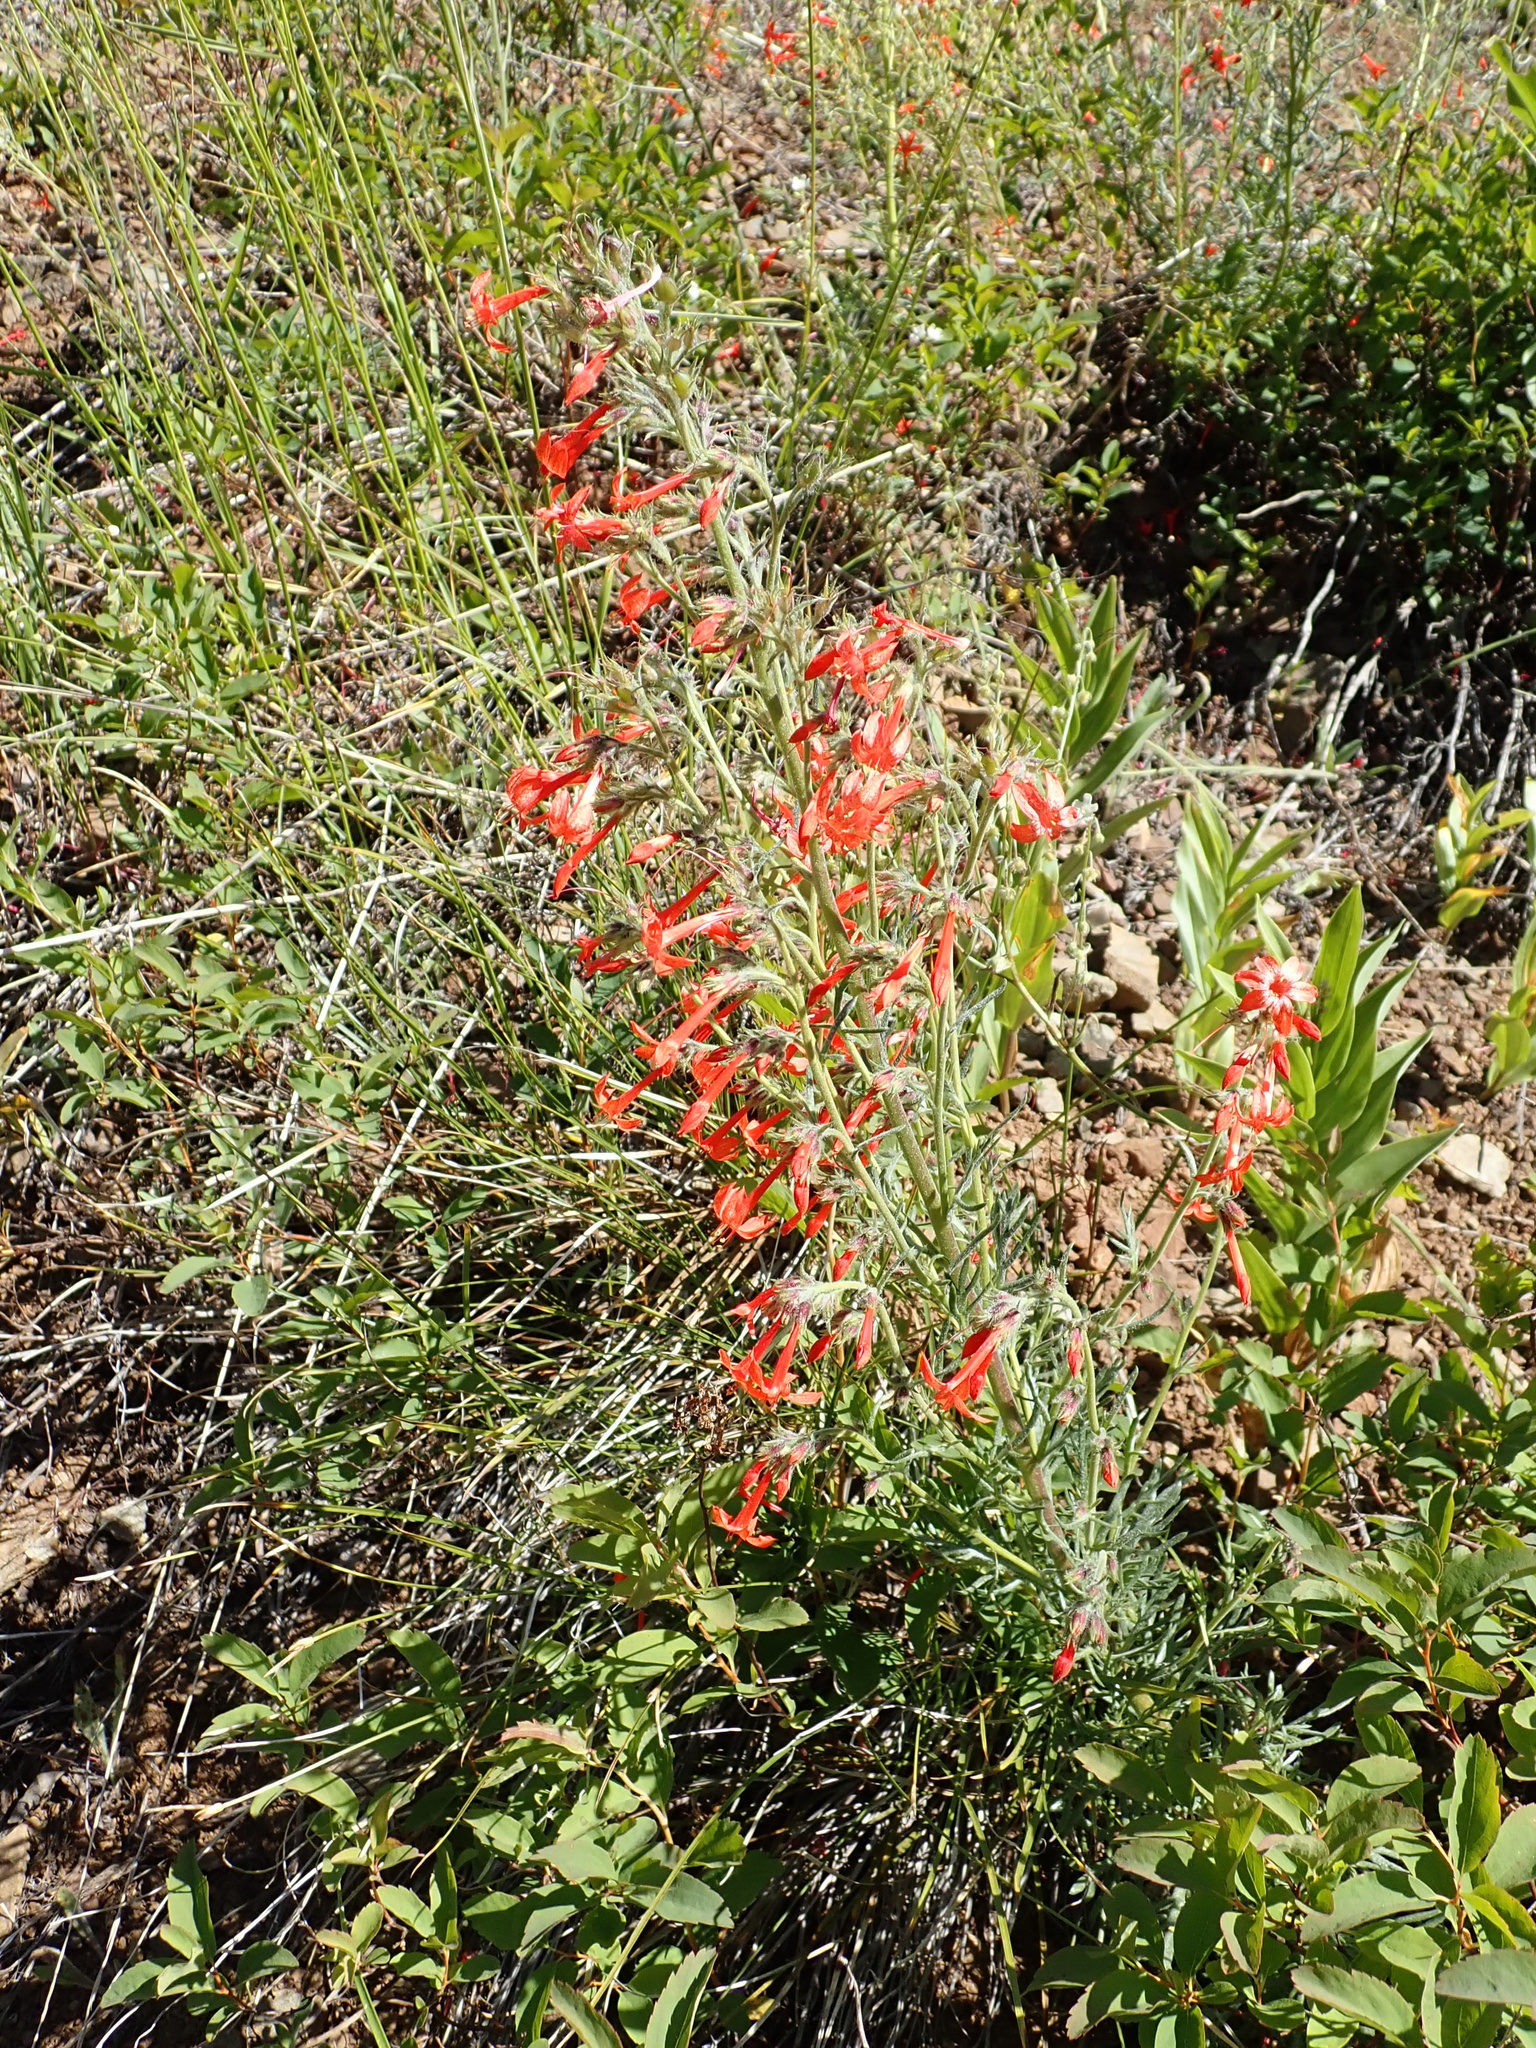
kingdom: Plantae
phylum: Tracheophyta
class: Magnoliopsida
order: Ericales
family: Polemoniaceae
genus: Ipomopsis
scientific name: Ipomopsis aggregata
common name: Scarlet gilia
